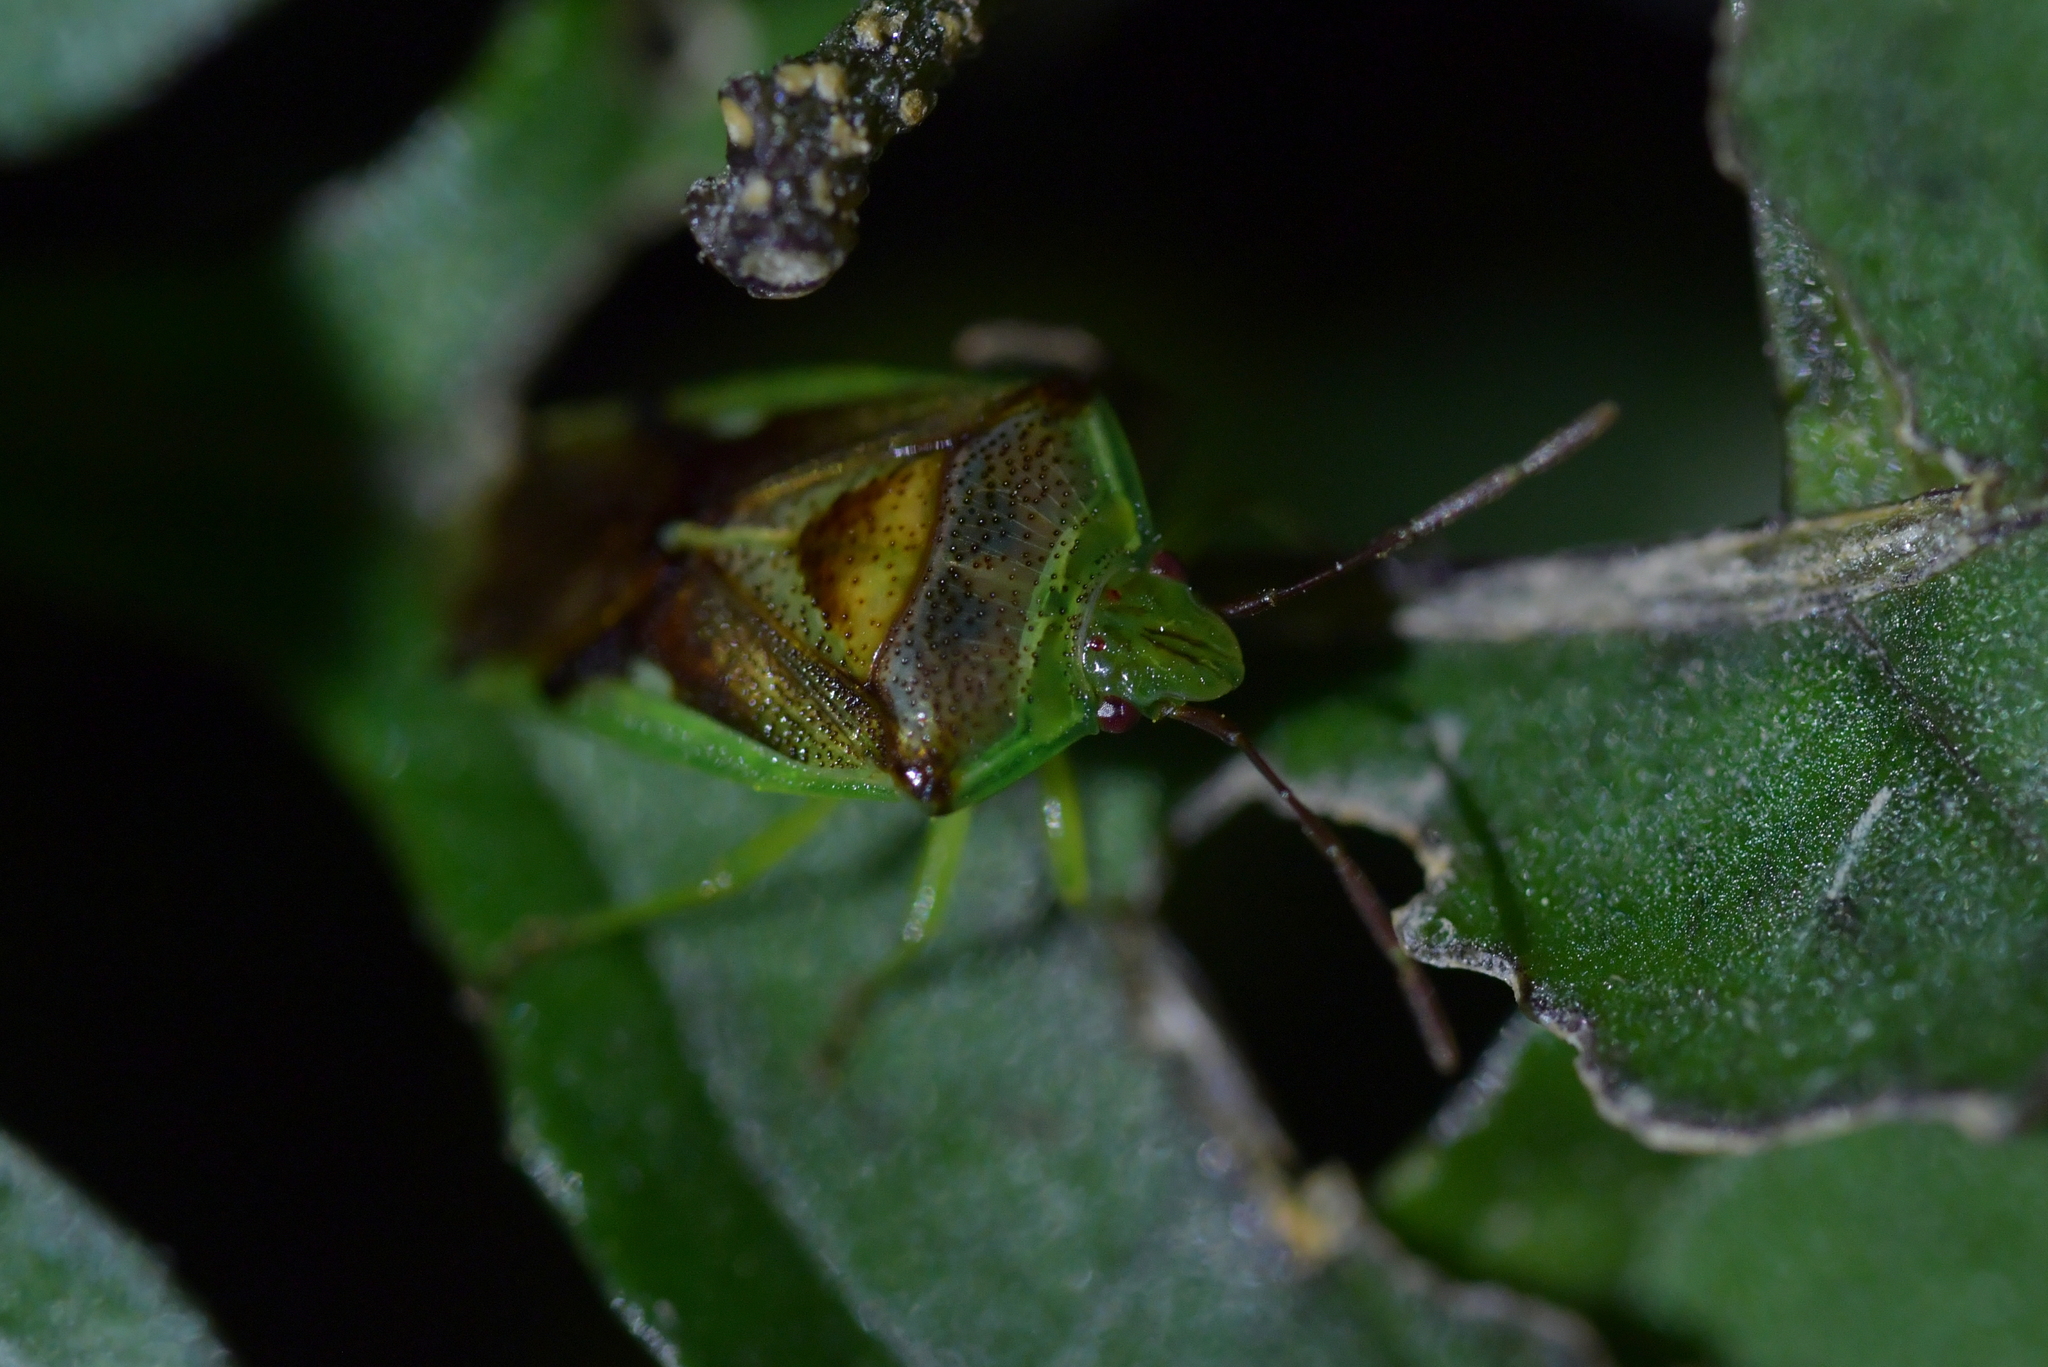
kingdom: Animalia
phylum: Arthropoda
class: Insecta
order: Hemiptera
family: Acanthosomatidae
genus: Oncacontias
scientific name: Oncacontias vittatus
